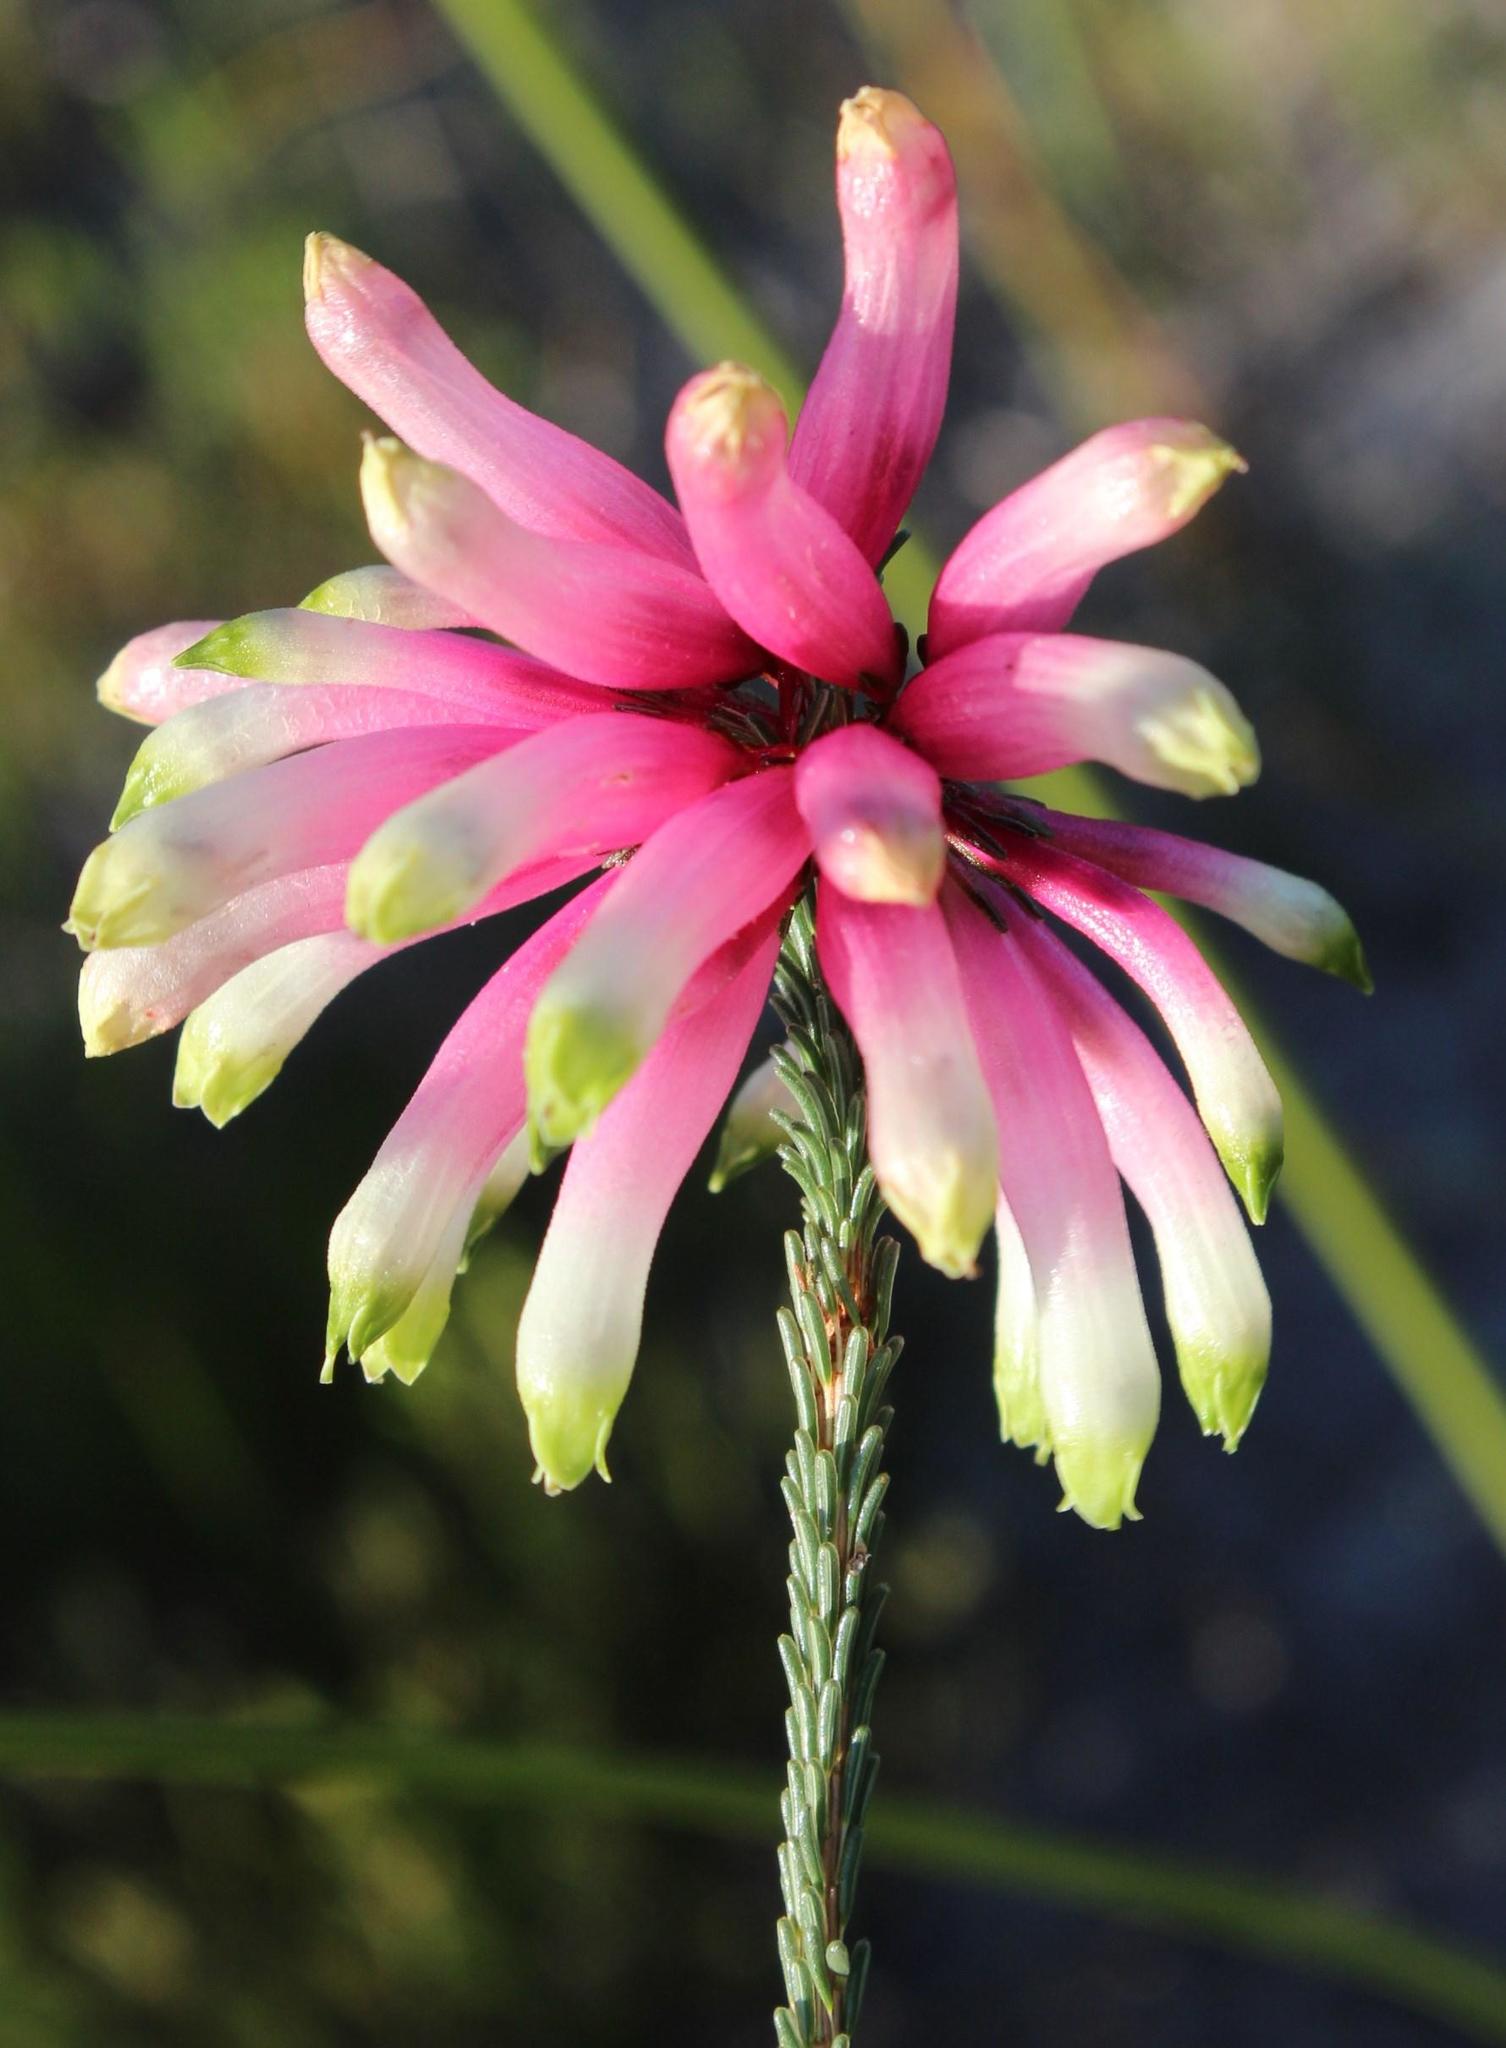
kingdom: Plantae
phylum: Tracheophyta
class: Magnoliopsida
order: Ericales
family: Ericaceae
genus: Erica
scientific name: Erica fascicularis
